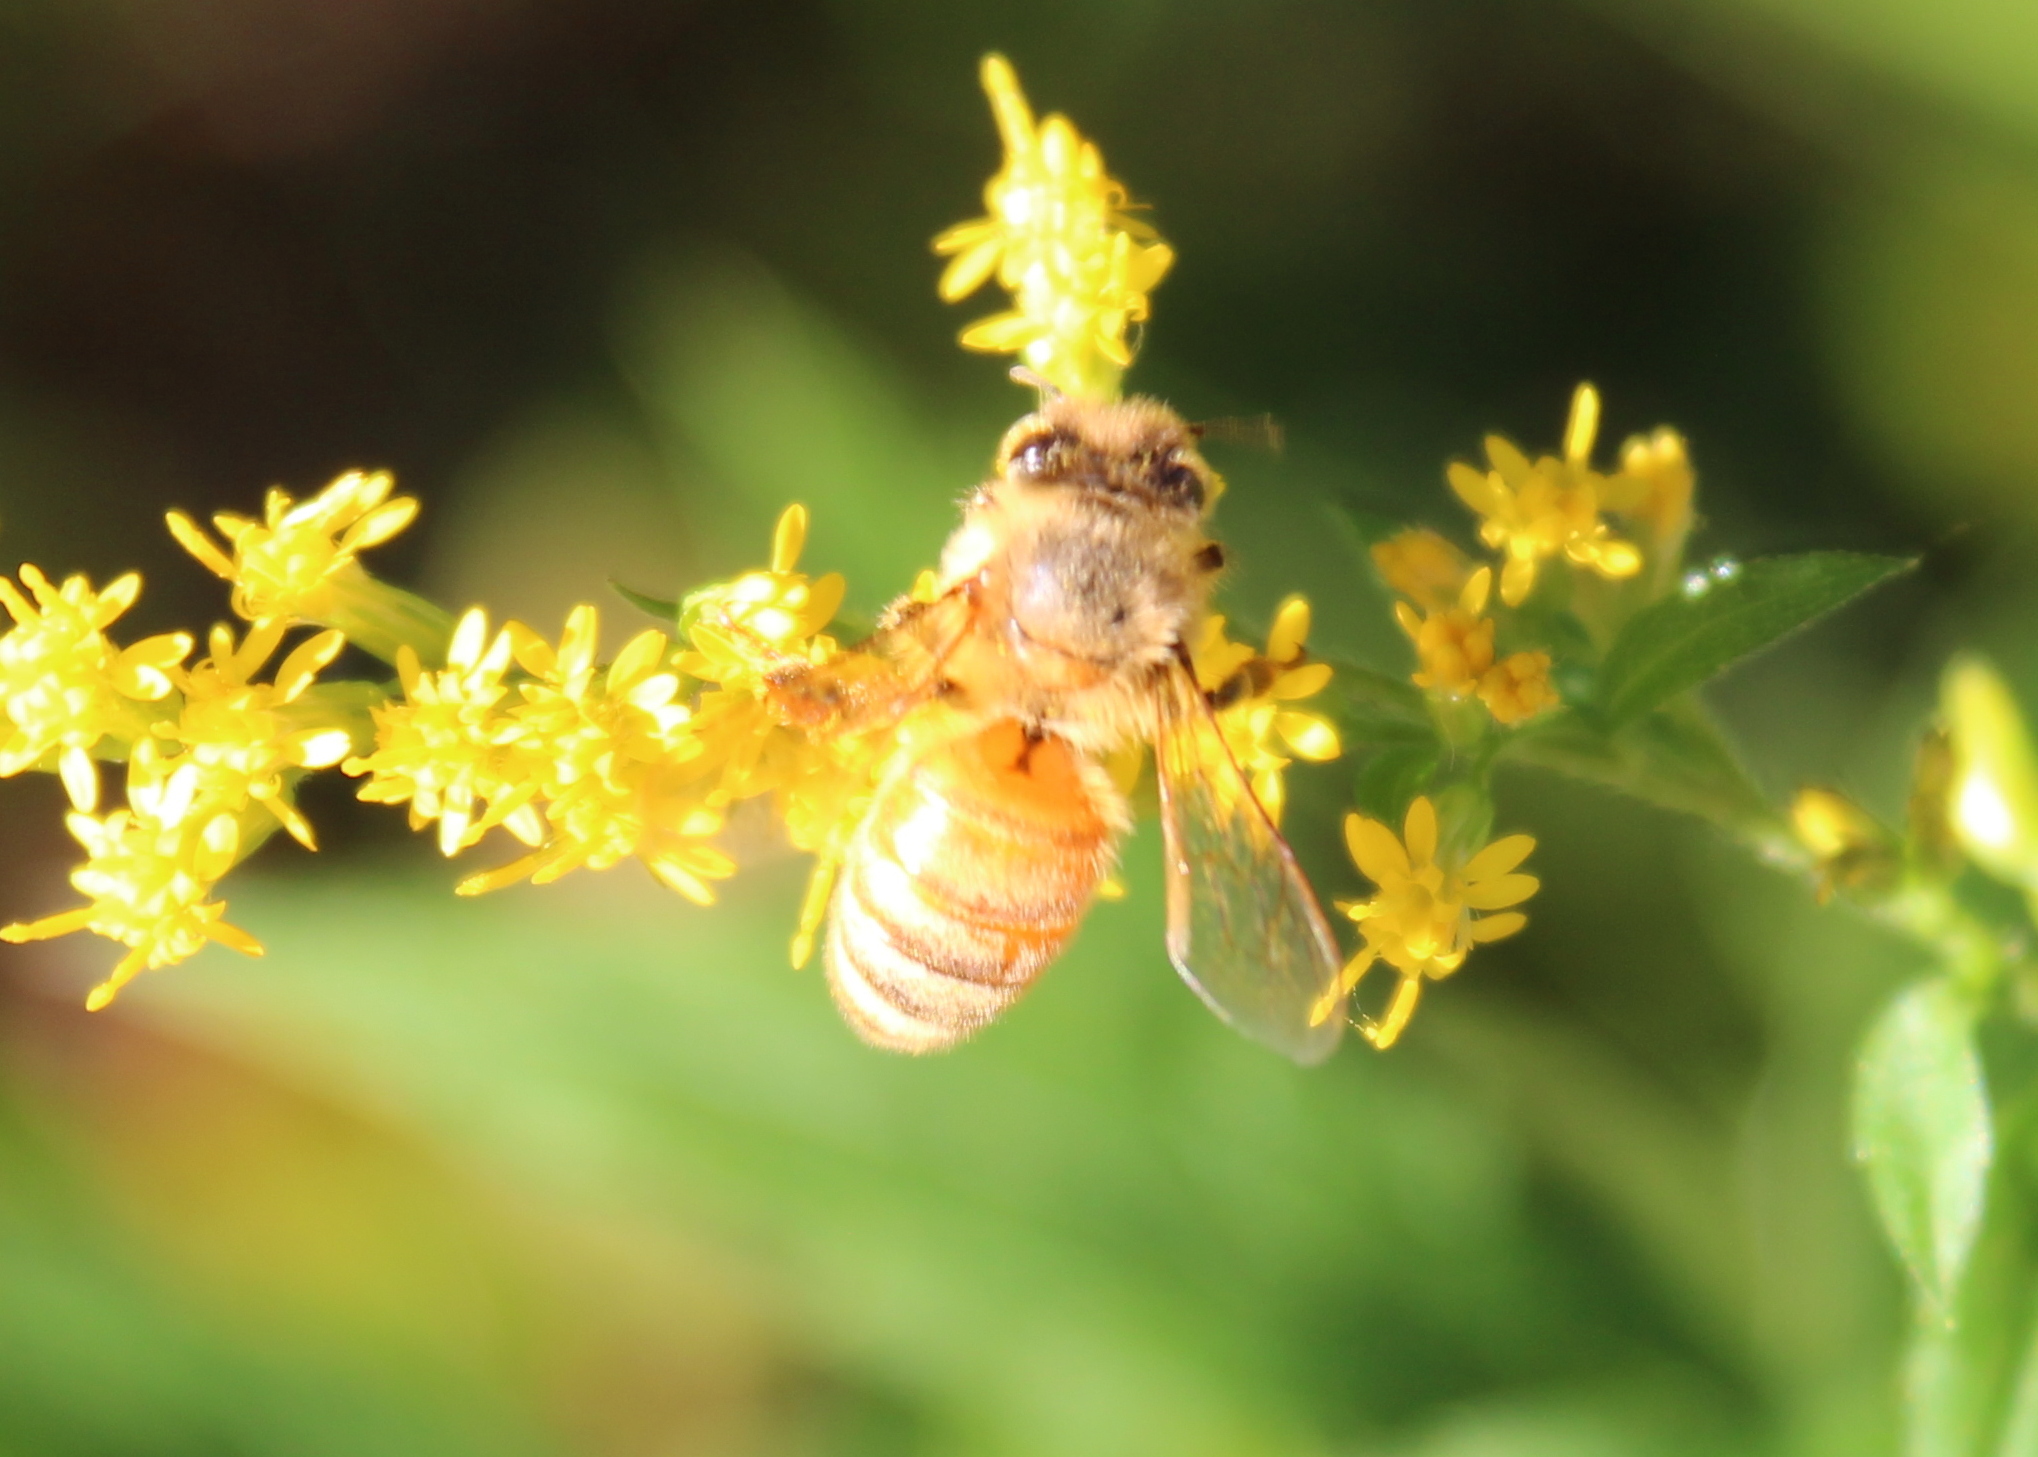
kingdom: Animalia
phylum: Arthropoda
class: Insecta
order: Hymenoptera
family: Apidae
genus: Apis
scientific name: Apis mellifera
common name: Honey bee
